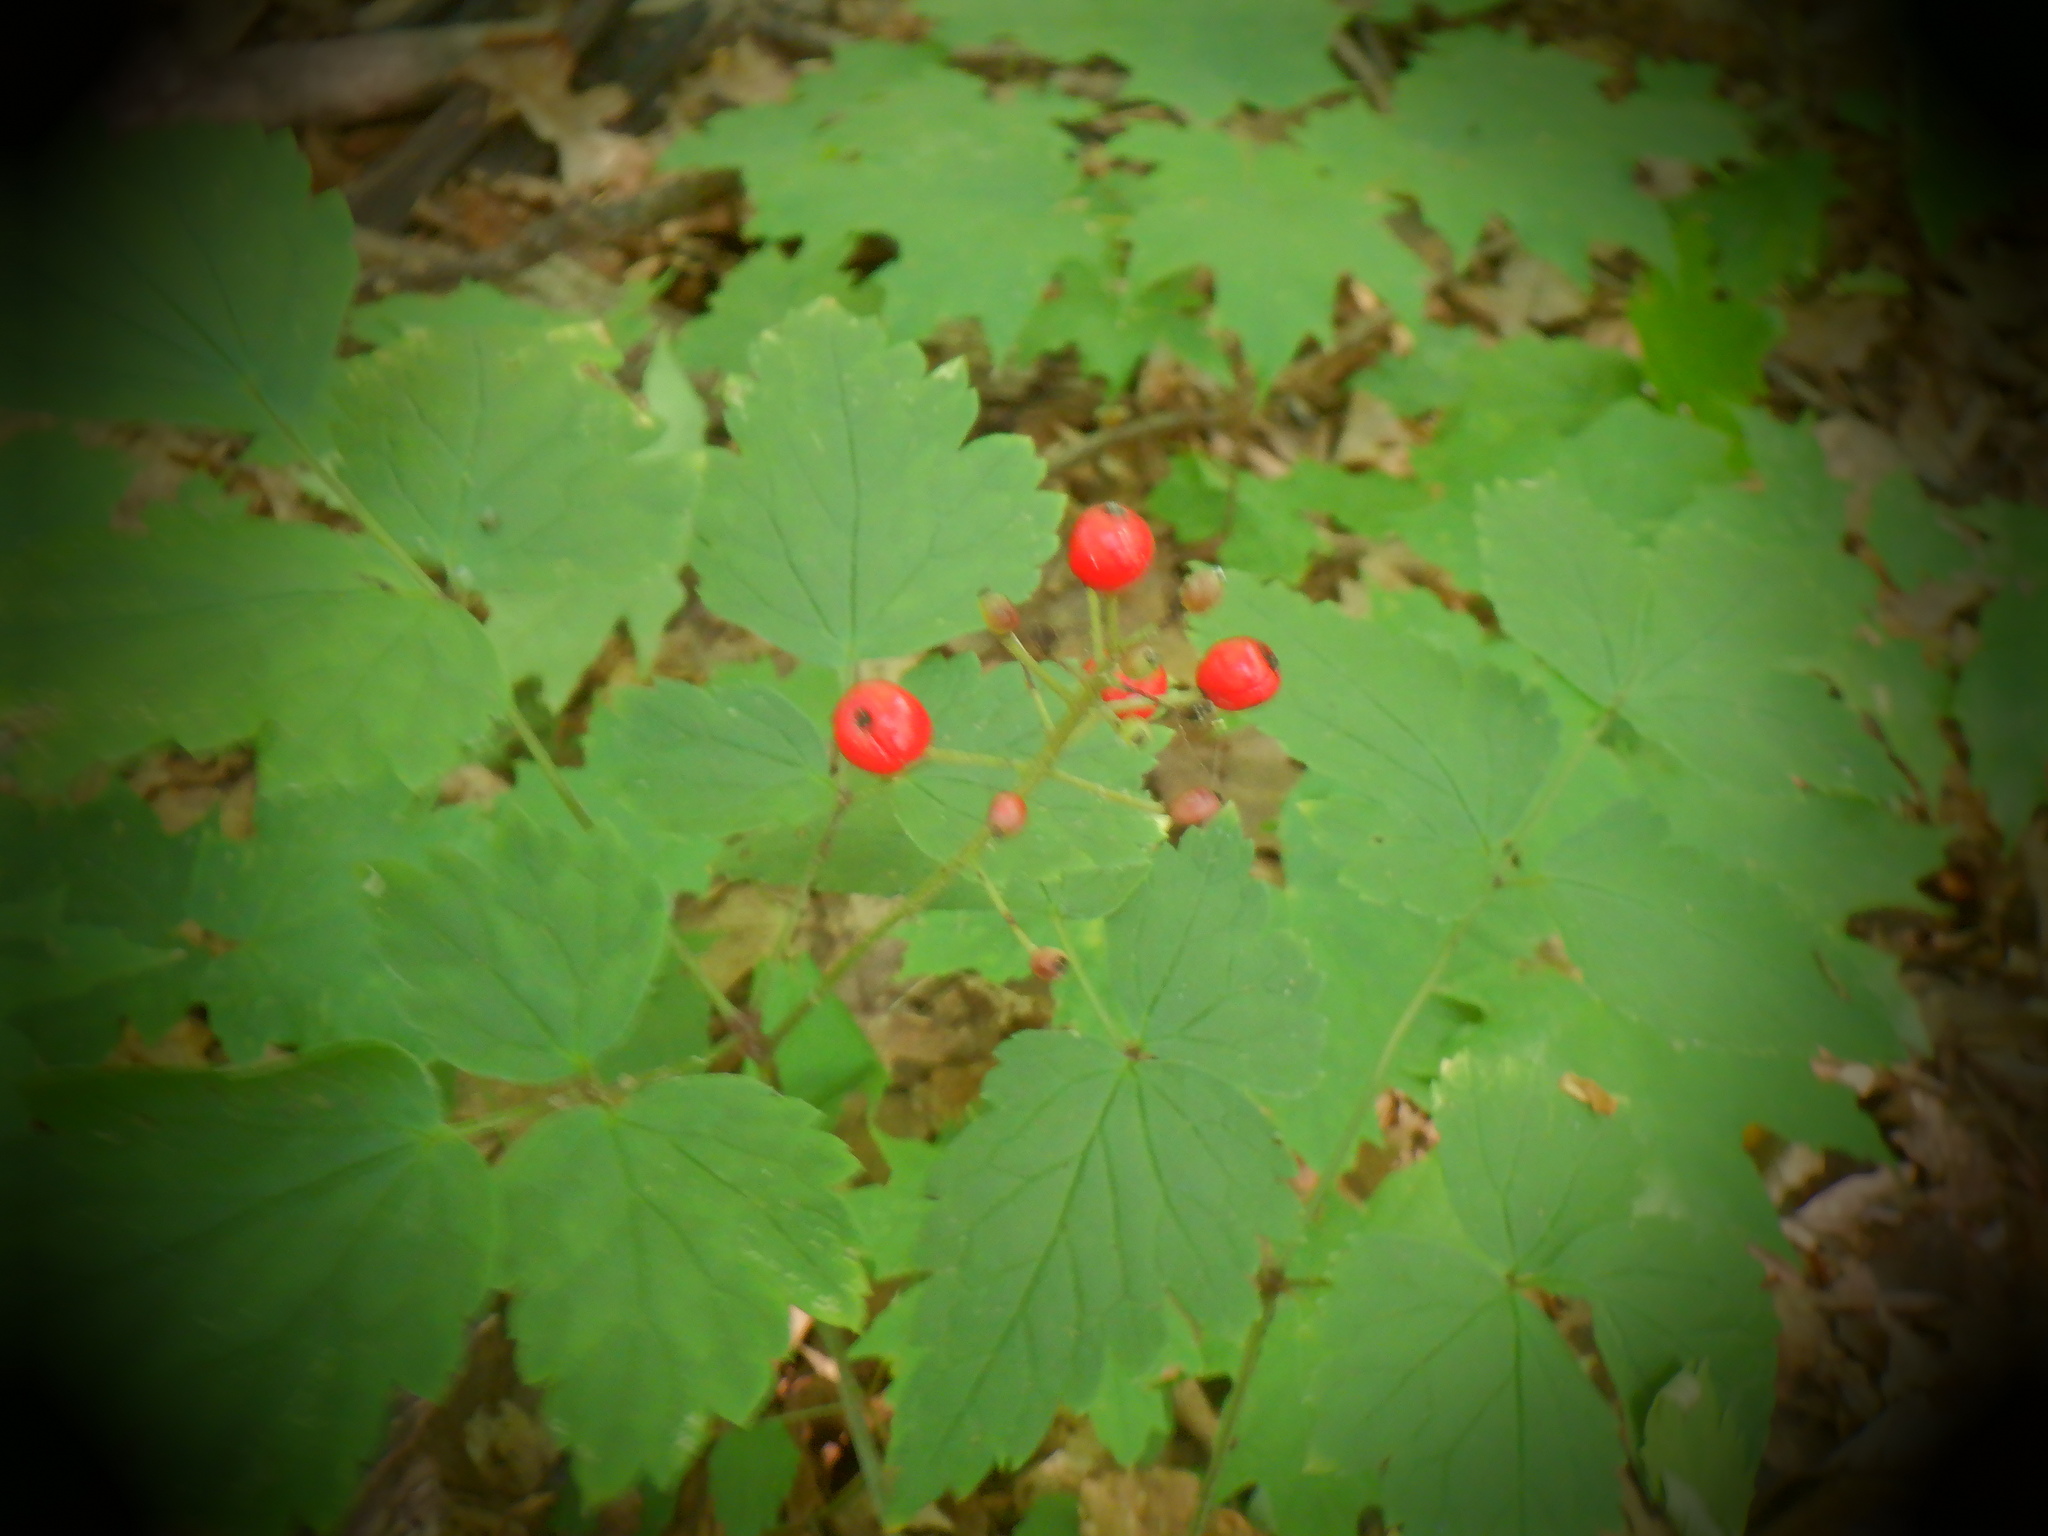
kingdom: Plantae
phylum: Tracheophyta
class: Magnoliopsida
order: Ranunculales
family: Ranunculaceae
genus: Actaea
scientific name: Actaea rubra
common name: Red baneberry
